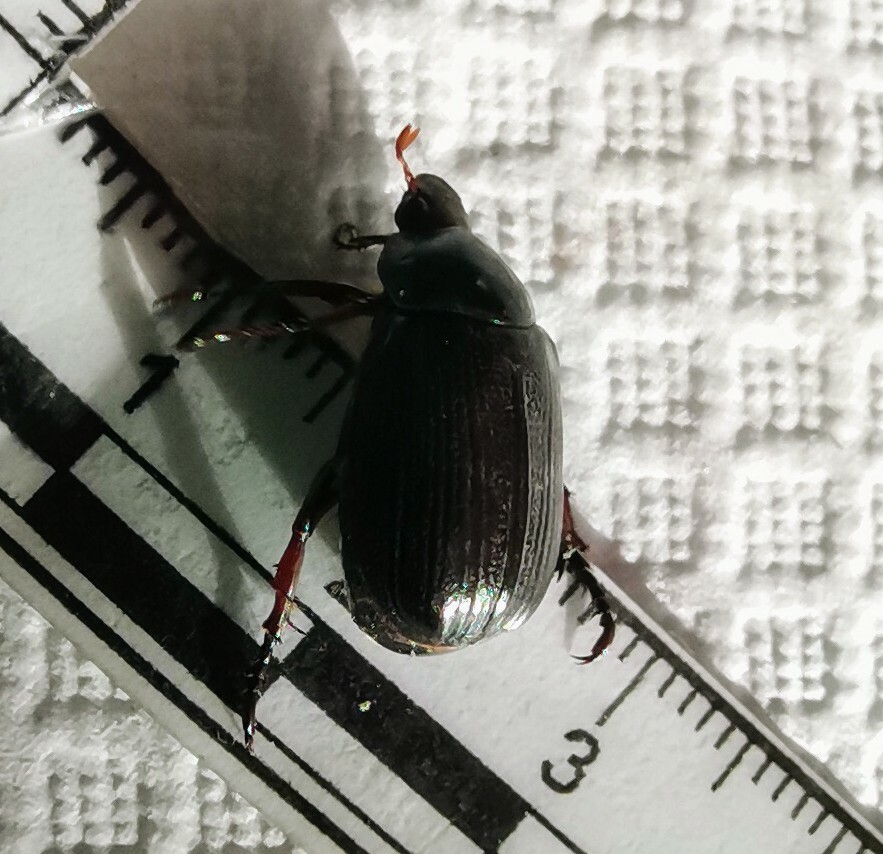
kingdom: Animalia
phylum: Arthropoda
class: Insecta
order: Coleoptera
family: Scarabaeidae
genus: Paranomala
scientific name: Paranomala cincta
